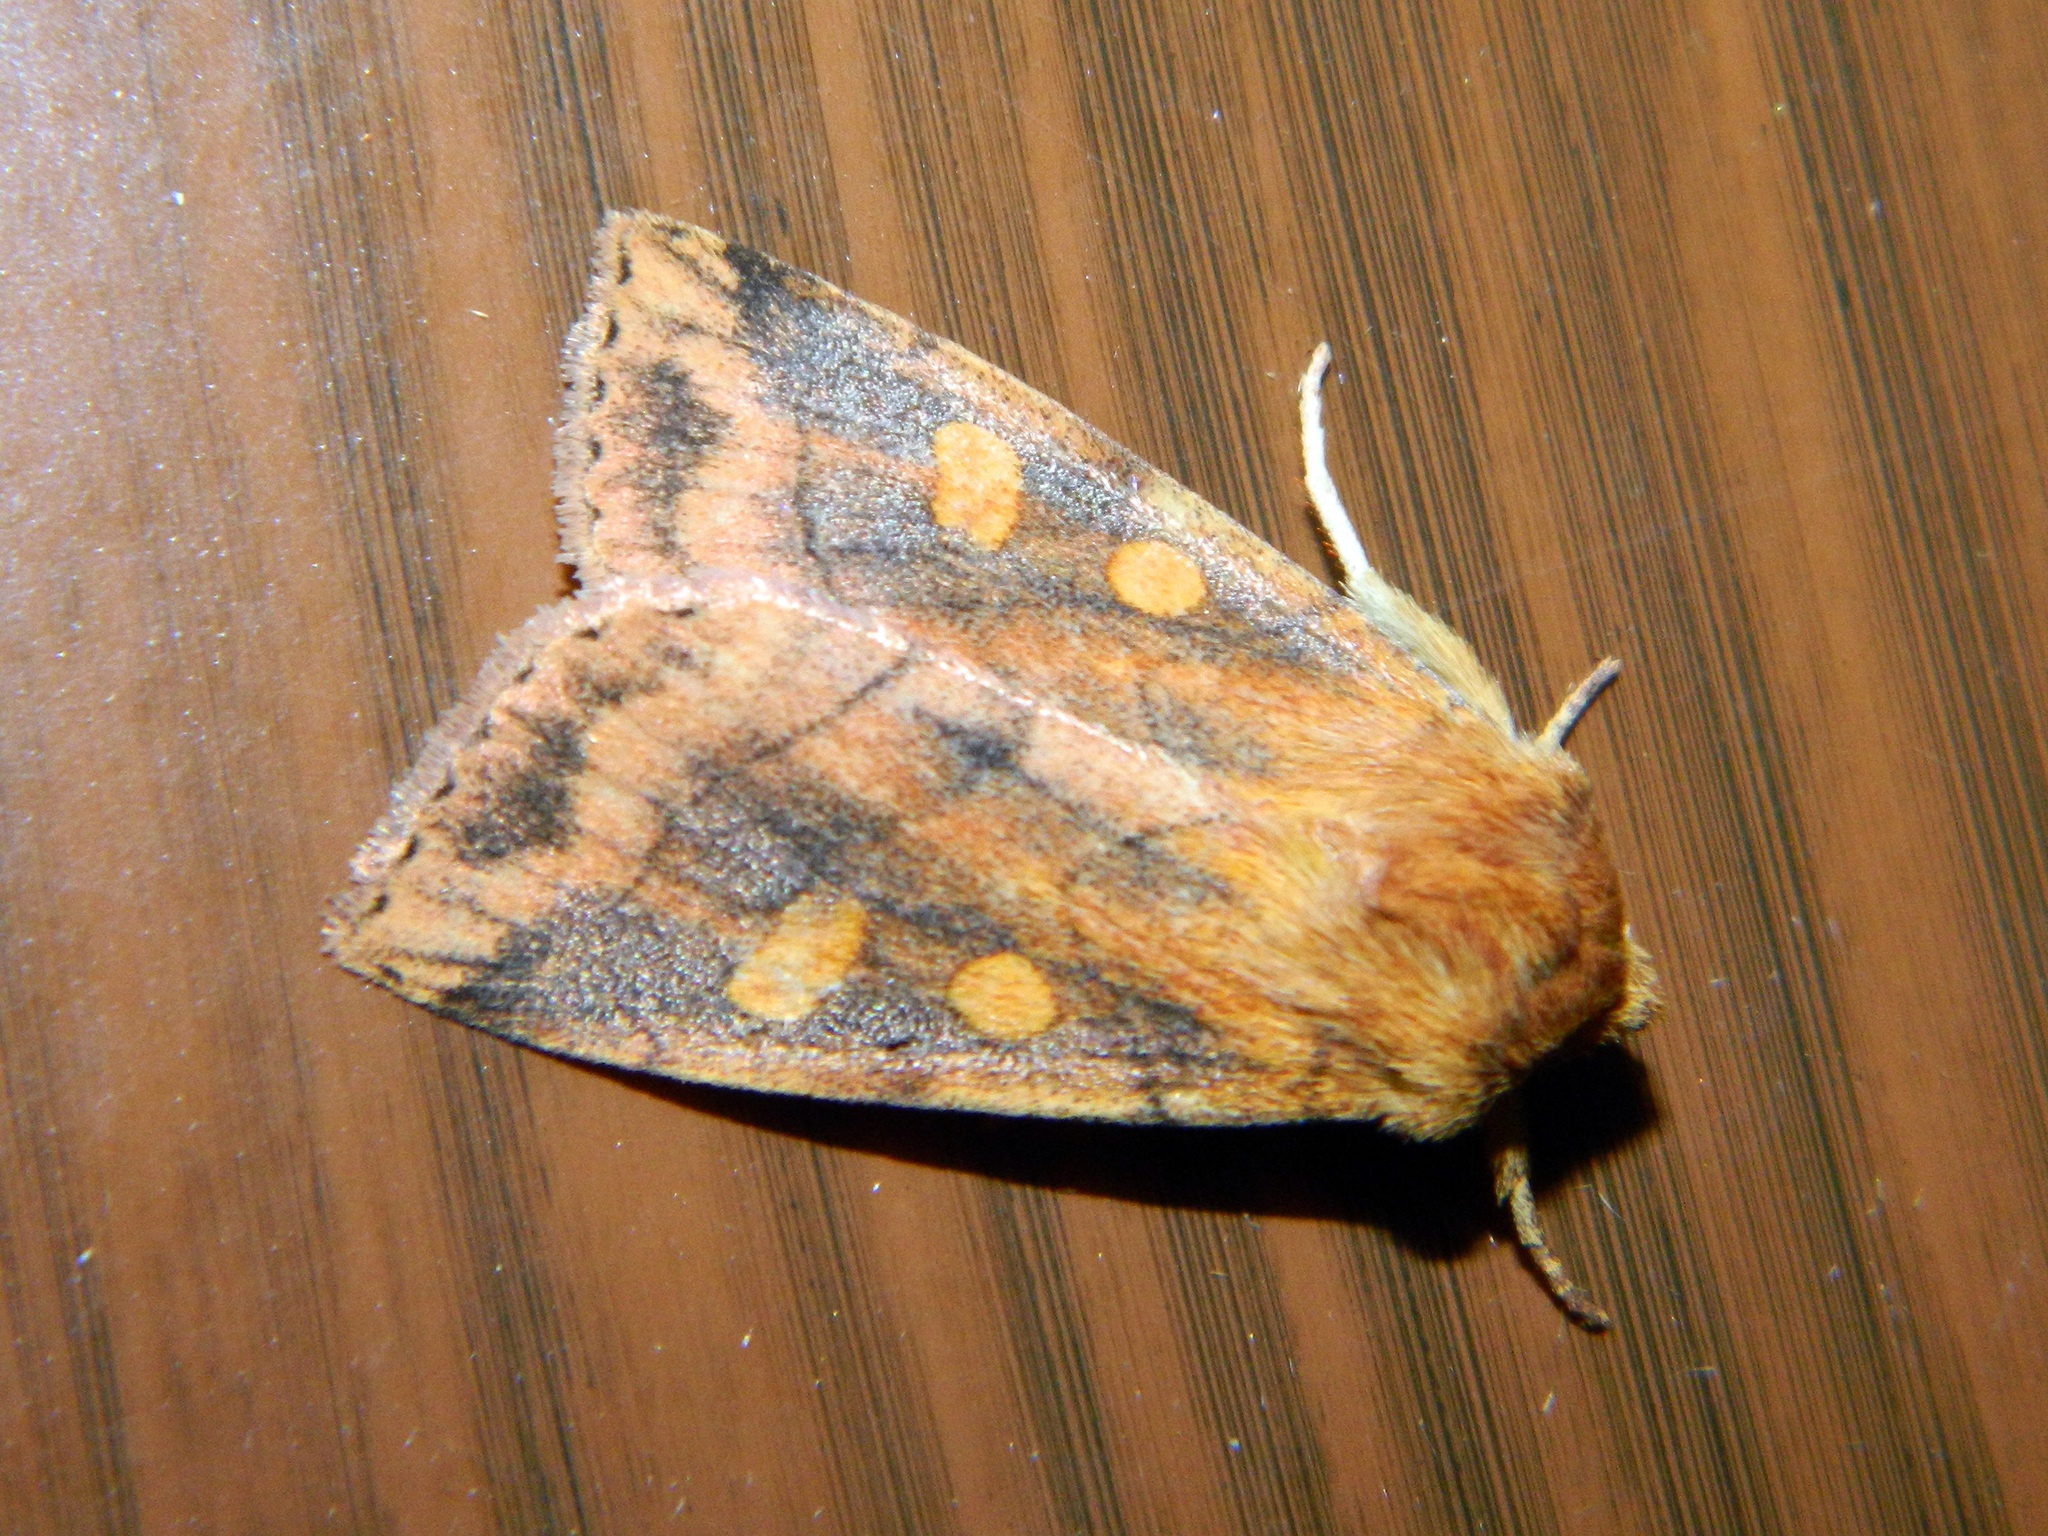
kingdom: Animalia
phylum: Arthropoda
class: Insecta
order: Lepidoptera
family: Noctuidae
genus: Enargia
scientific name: Enargia decolor
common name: Aspen twoleaf tier moth
